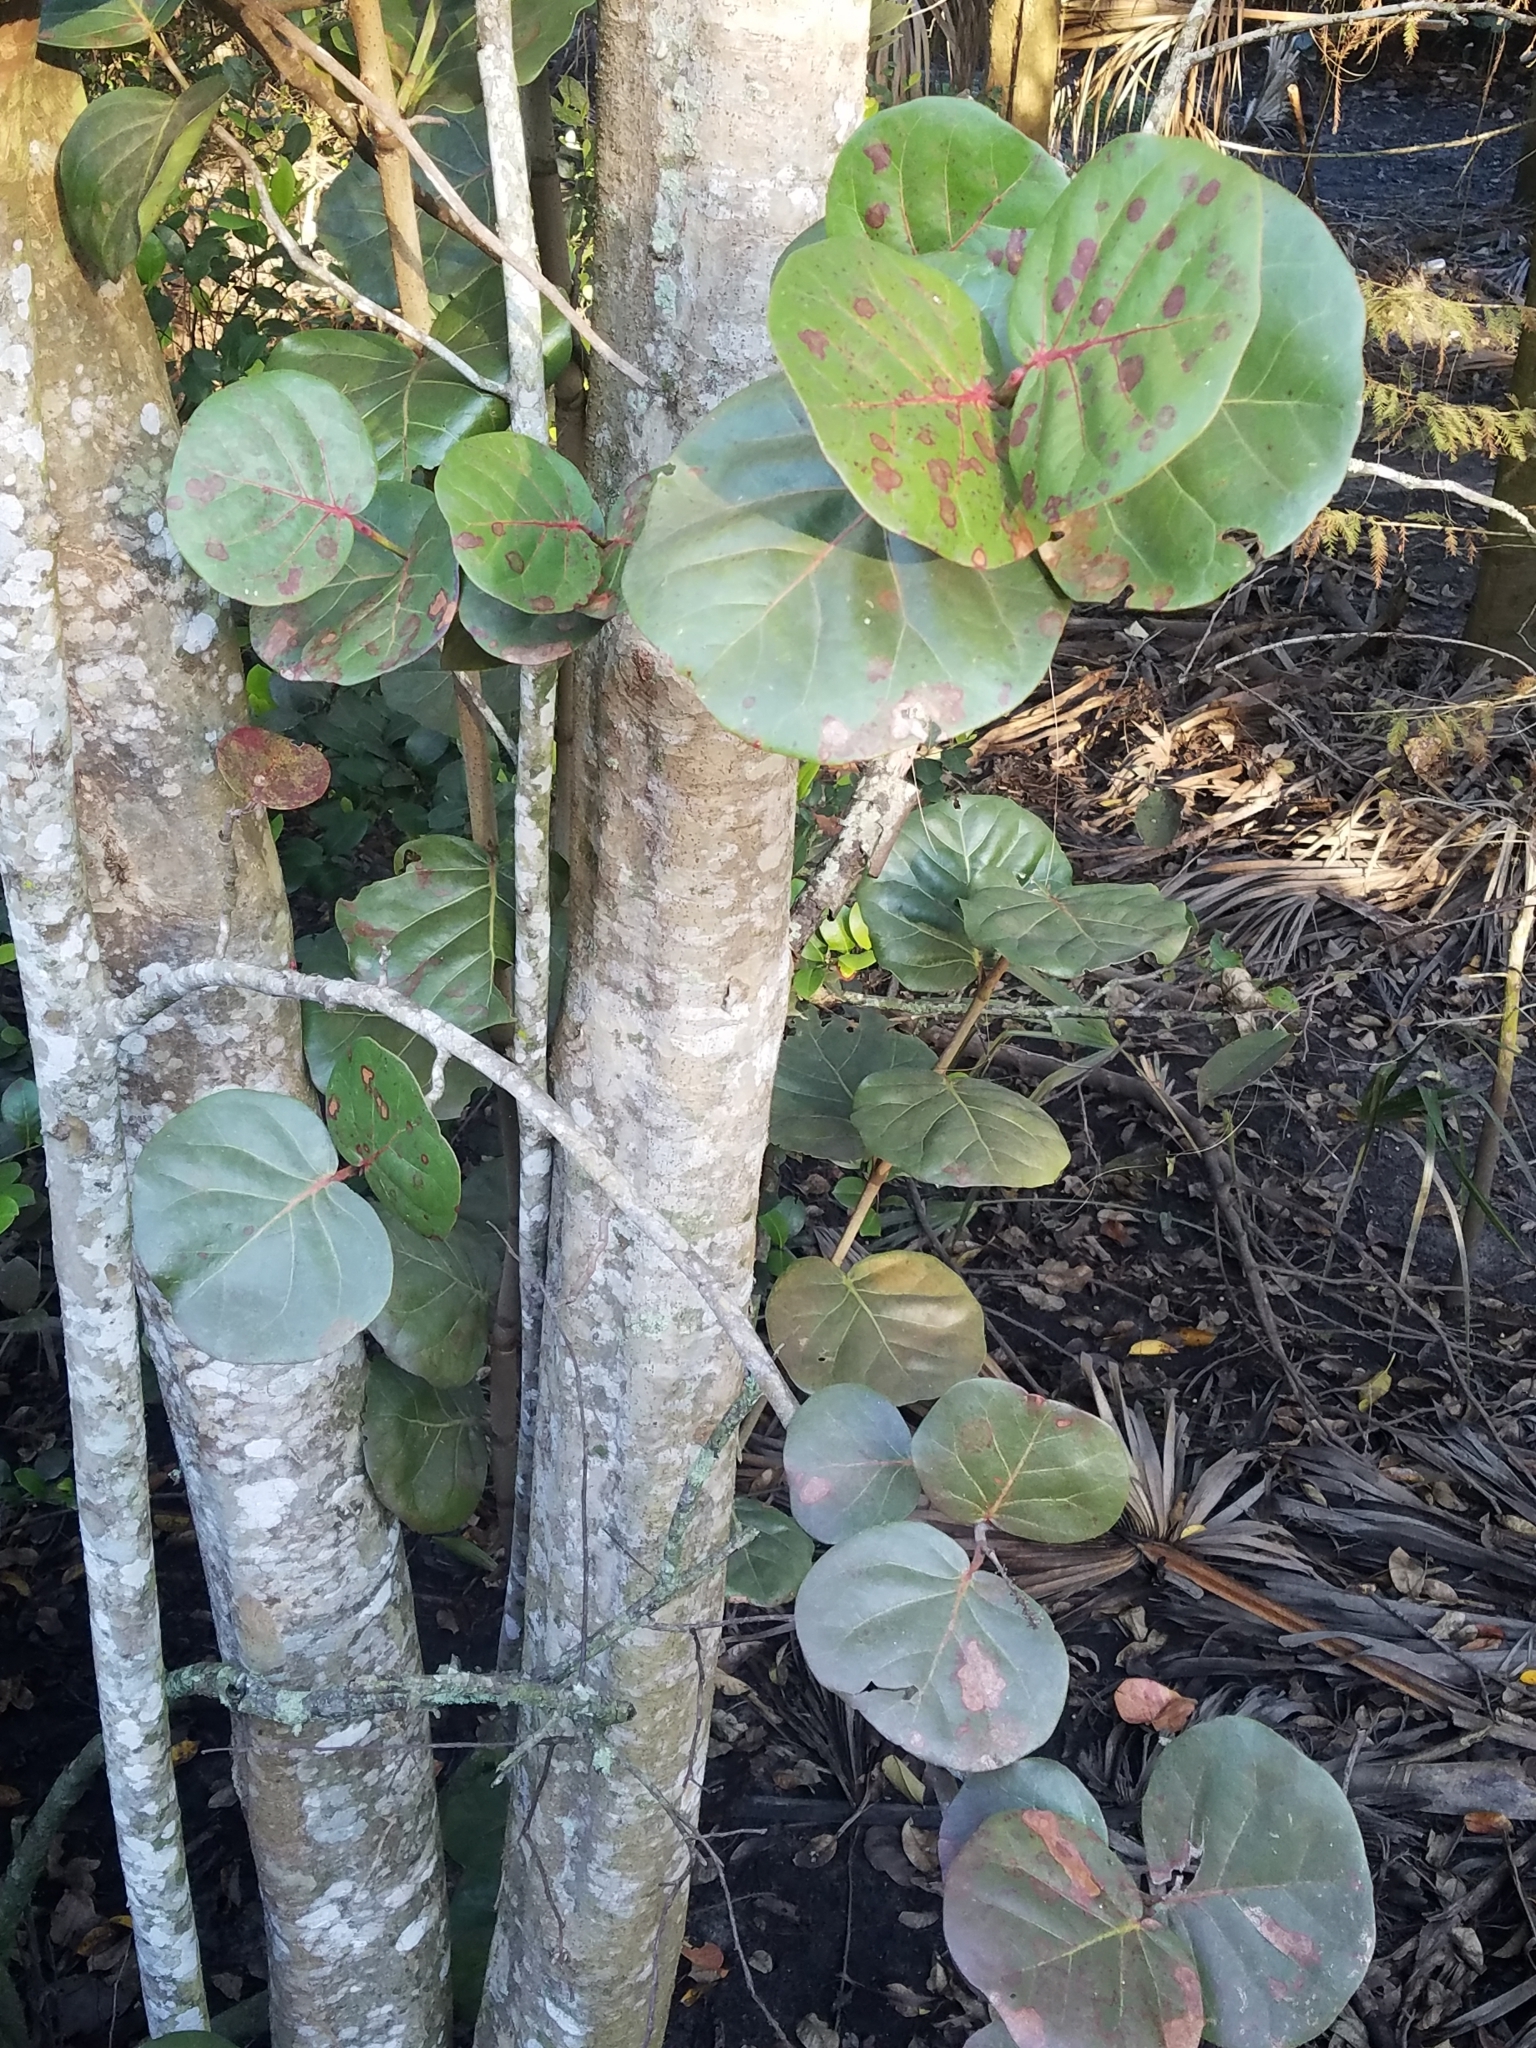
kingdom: Plantae
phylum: Tracheophyta
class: Magnoliopsida
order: Caryophyllales
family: Polygonaceae
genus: Coccoloba
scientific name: Coccoloba uvifera
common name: Seagrape
